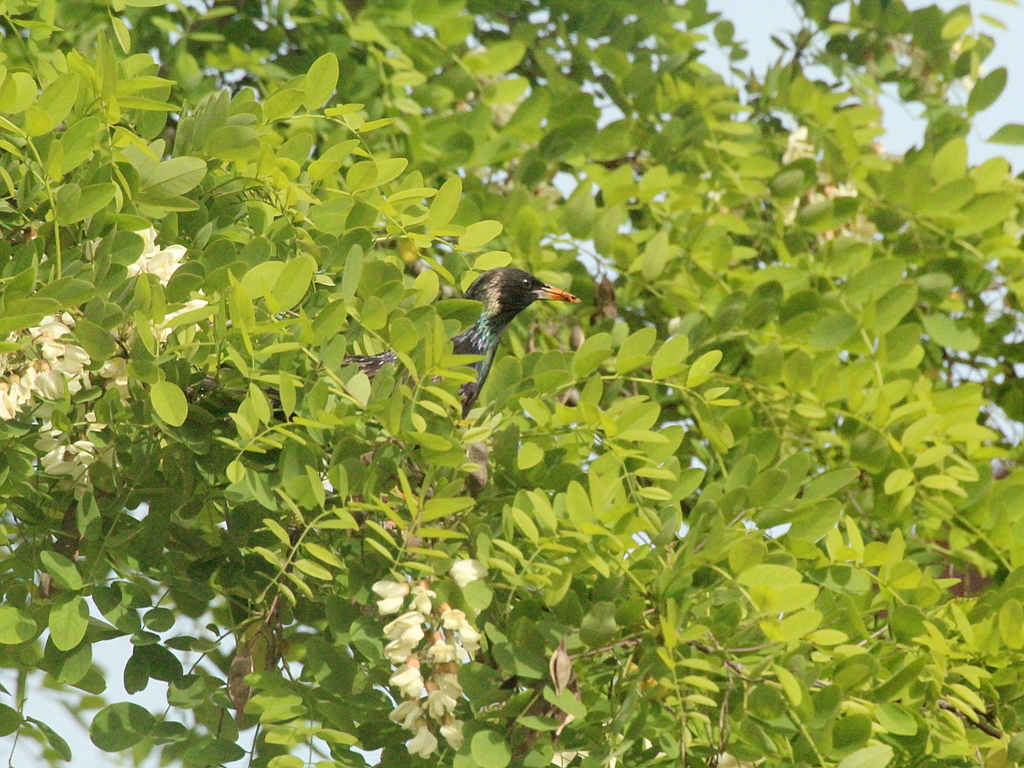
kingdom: Animalia
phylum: Chordata
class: Aves
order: Passeriformes
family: Sturnidae
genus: Sturnus
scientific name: Sturnus vulgaris
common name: Common starling
